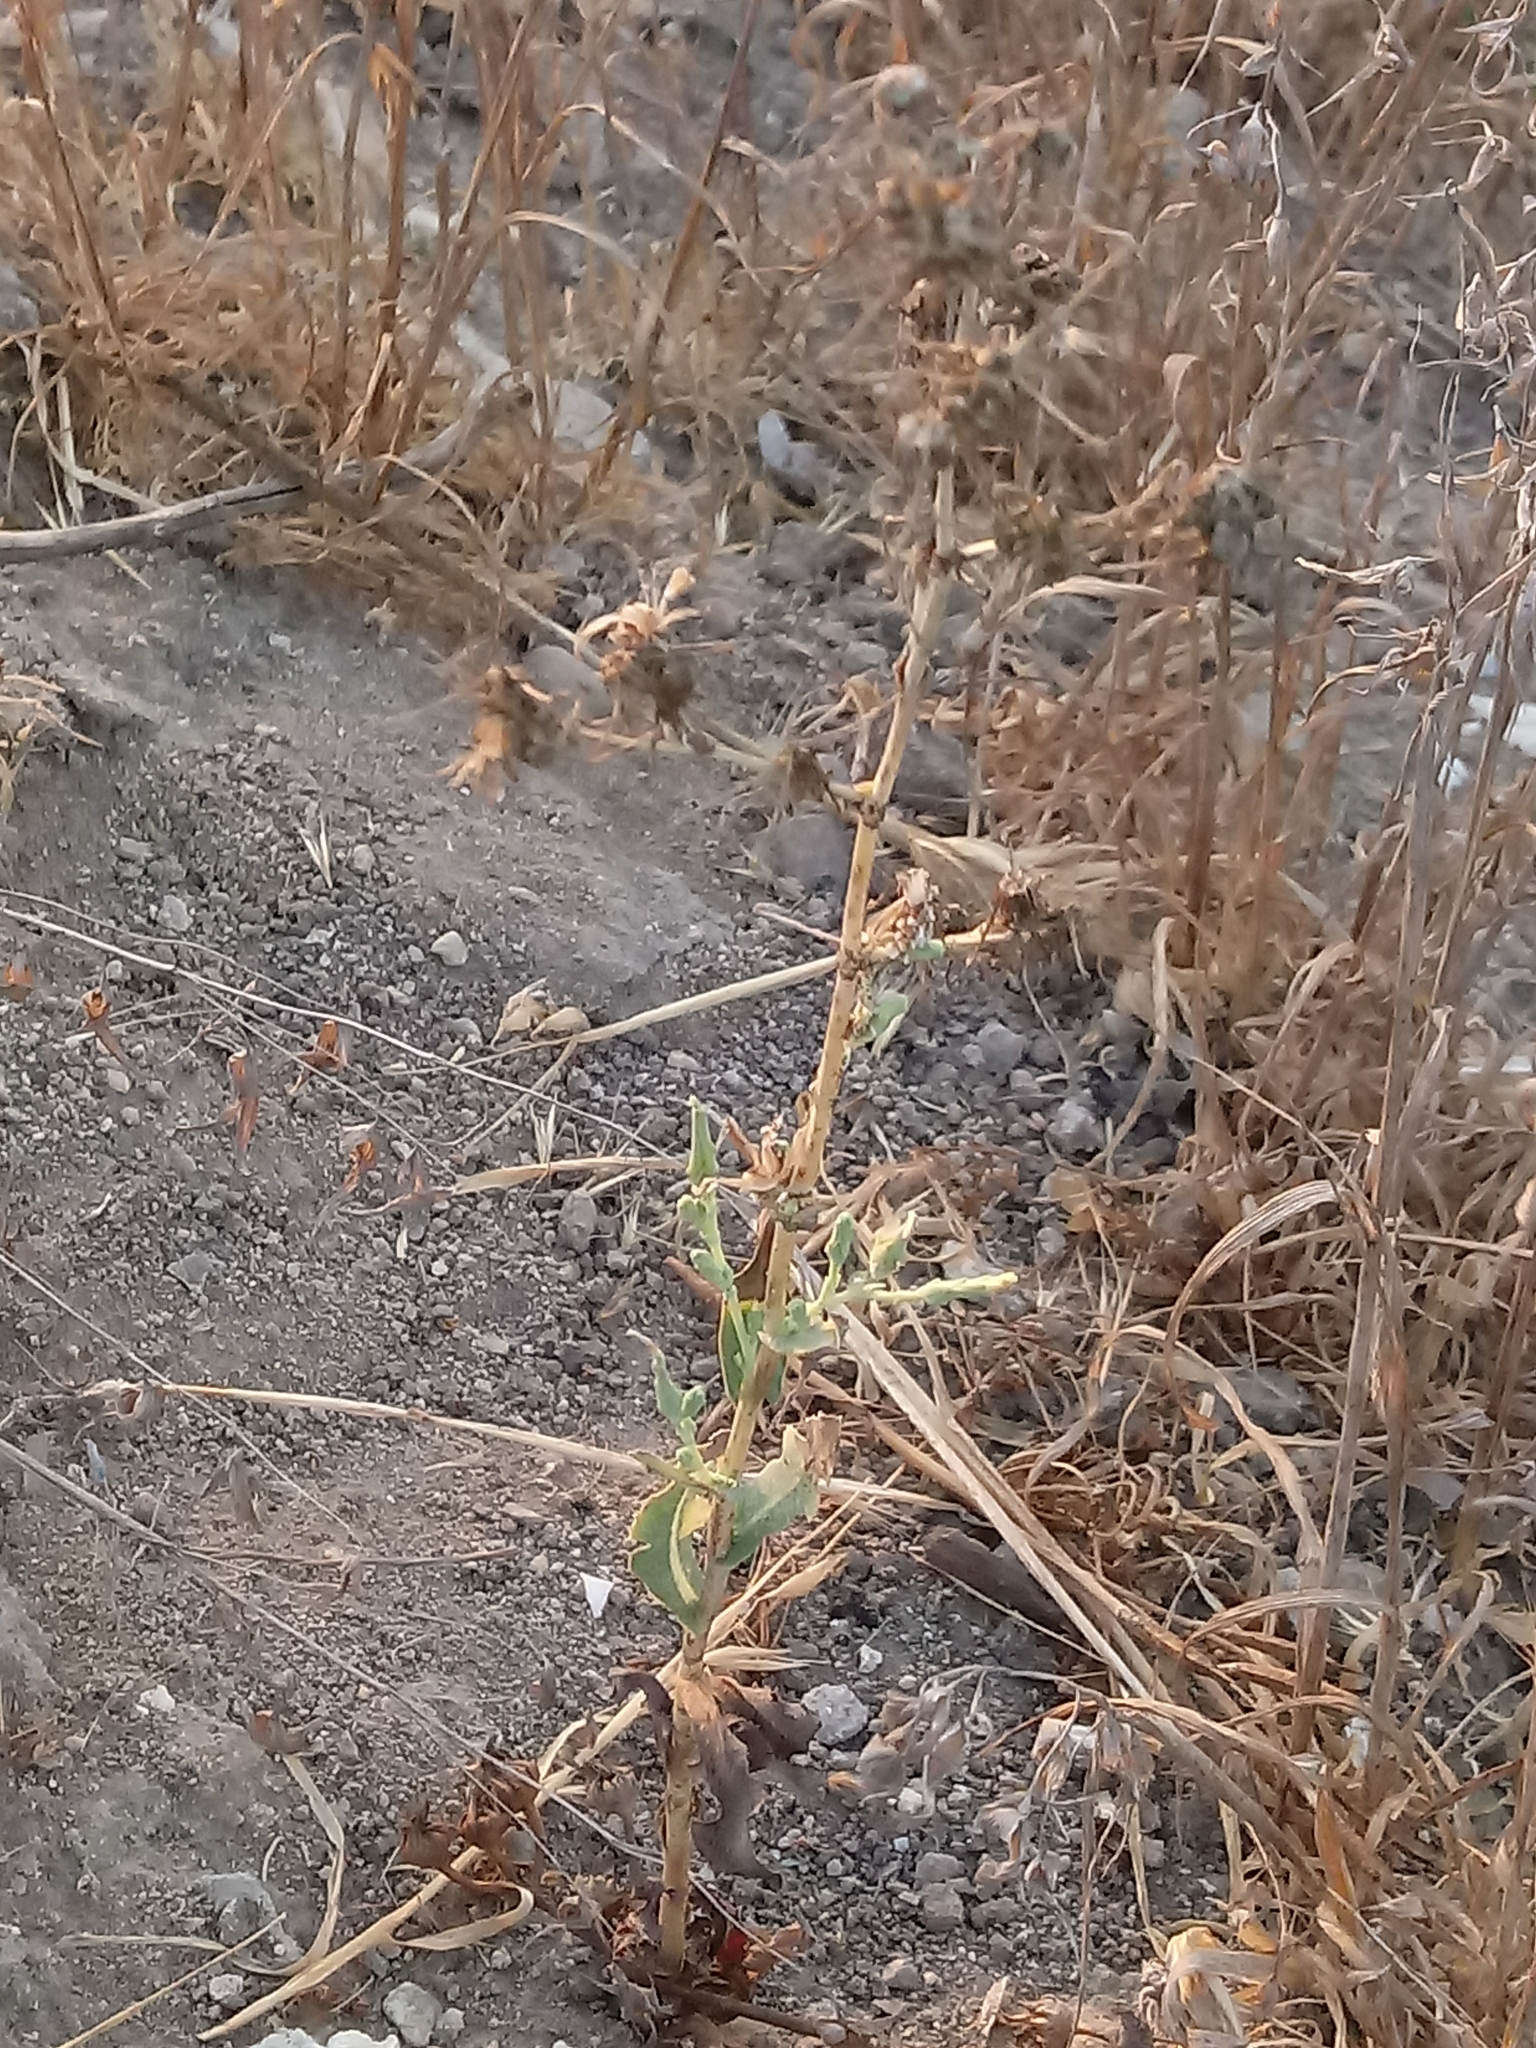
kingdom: Plantae
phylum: Tracheophyta
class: Magnoliopsida
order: Asterales
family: Asteraceae
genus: Lactuca
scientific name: Lactuca serriola
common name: Prickly lettuce
